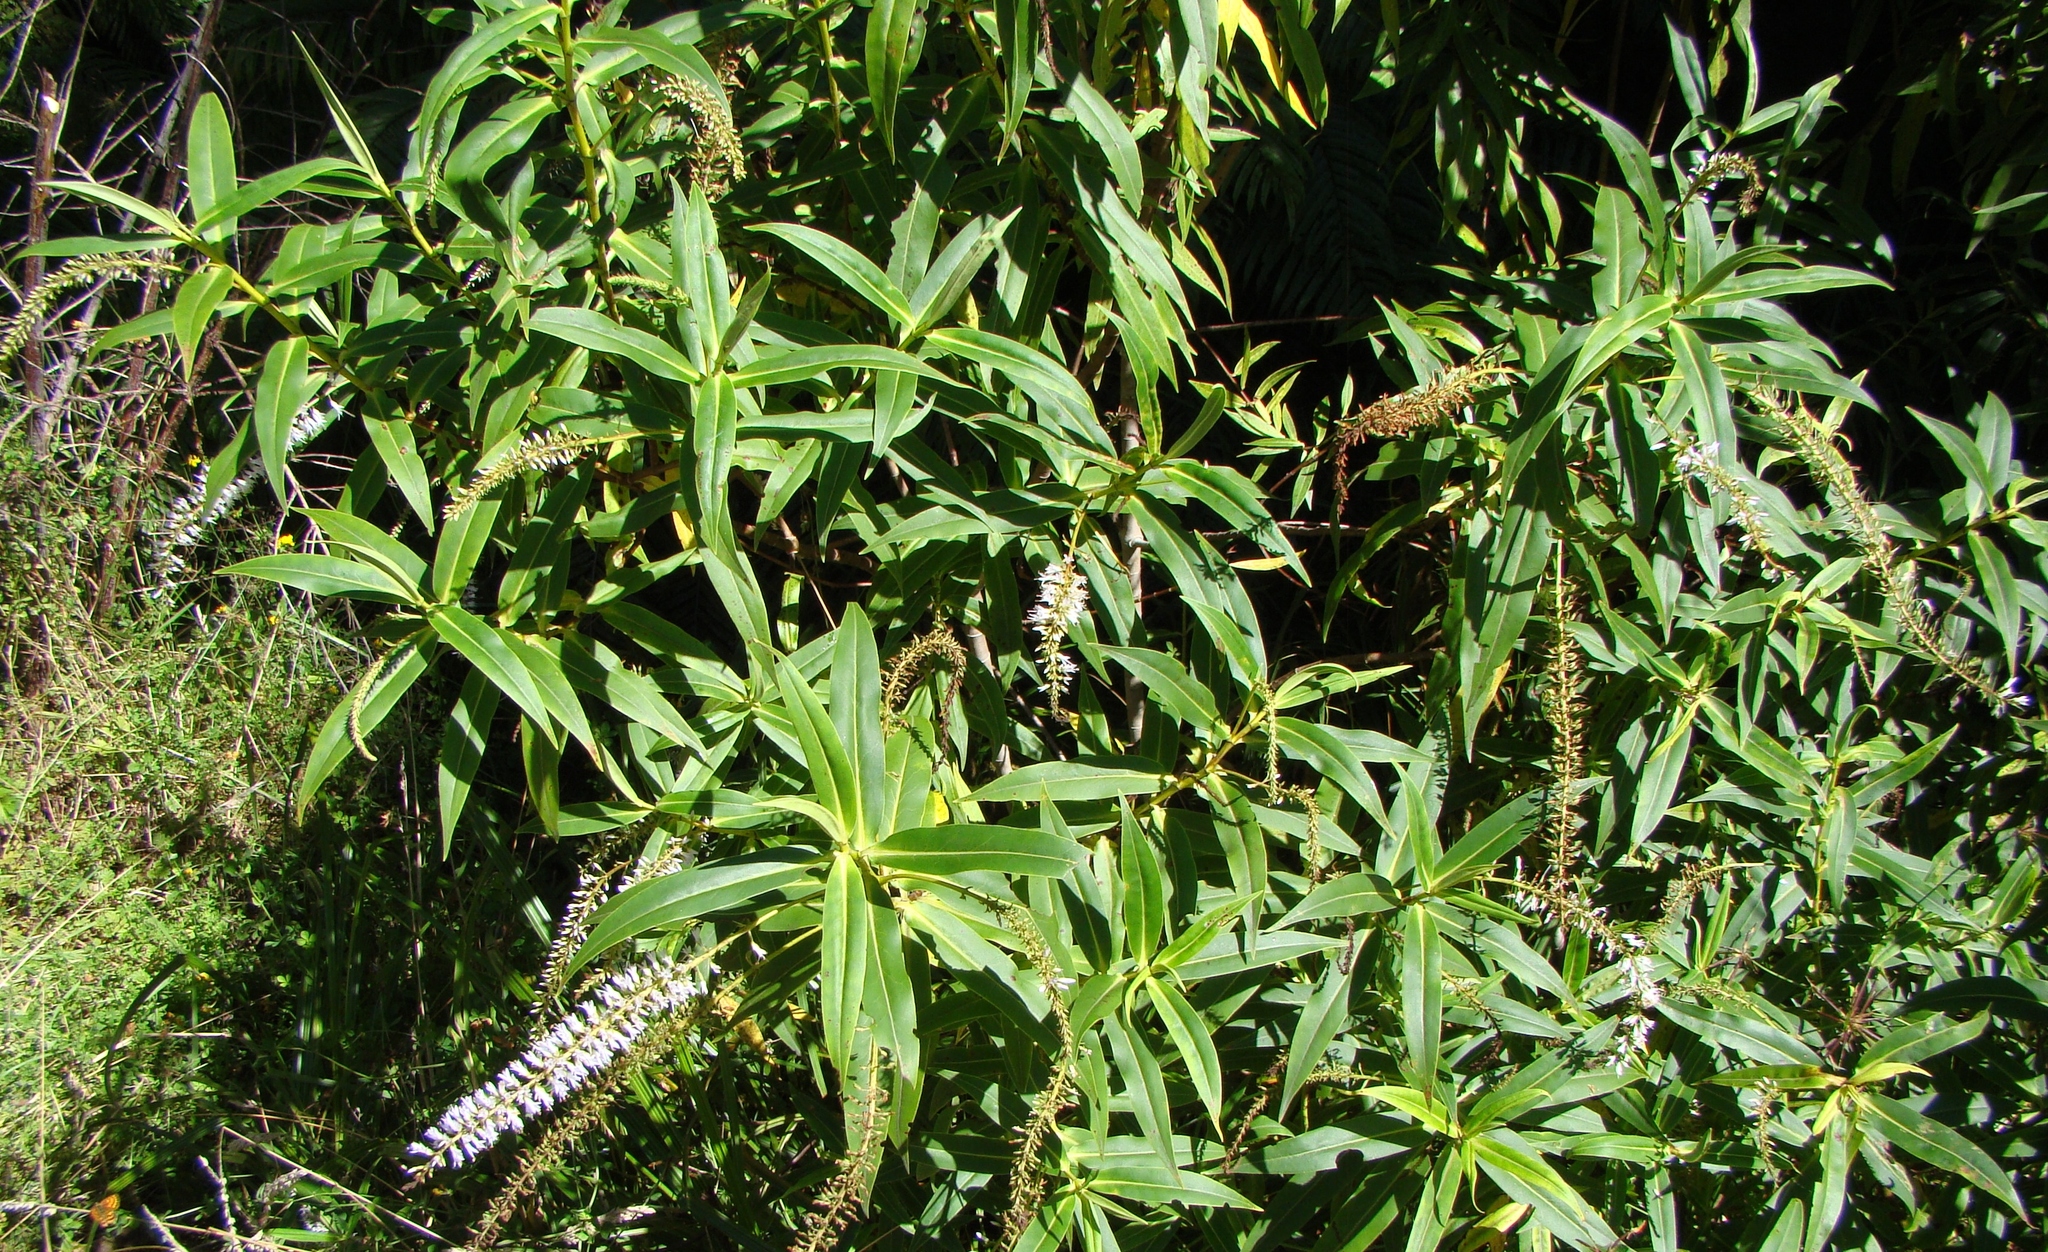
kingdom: Plantae
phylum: Tracheophyta
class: Magnoliopsida
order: Lamiales
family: Plantaginaceae
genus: Veronica
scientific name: Veronica salicifolia
